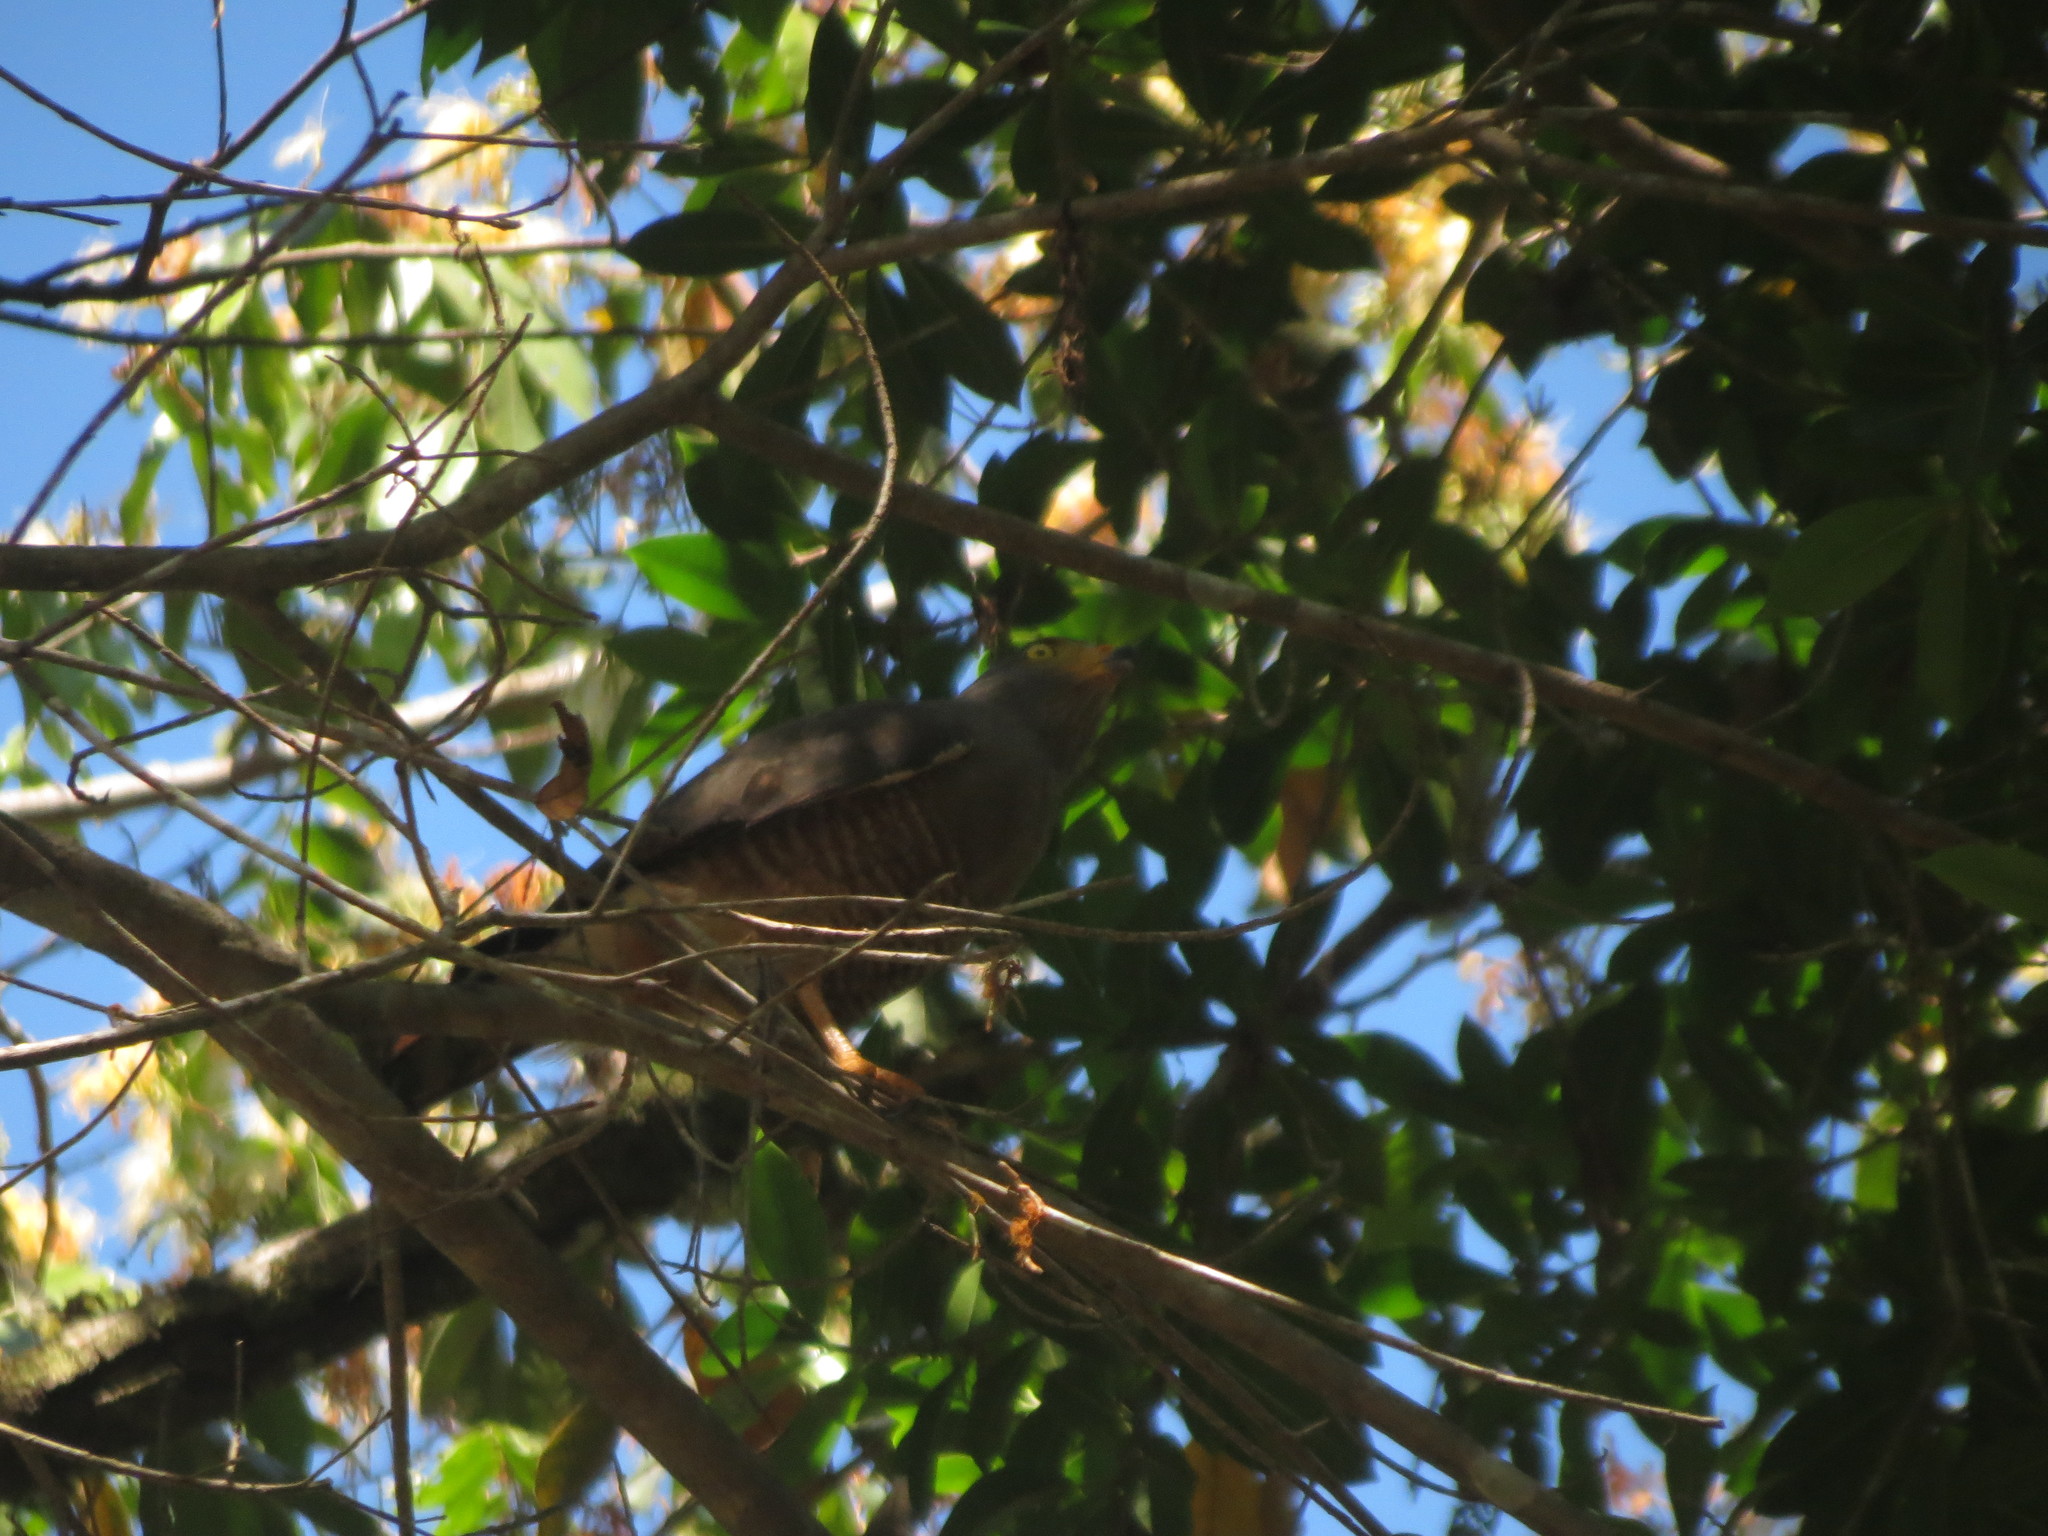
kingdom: Animalia
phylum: Chordata
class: Aves
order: Accipitriformes
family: Accipitridae
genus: Rupornis
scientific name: Rupornis magnirostris
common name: Roadside hawk
